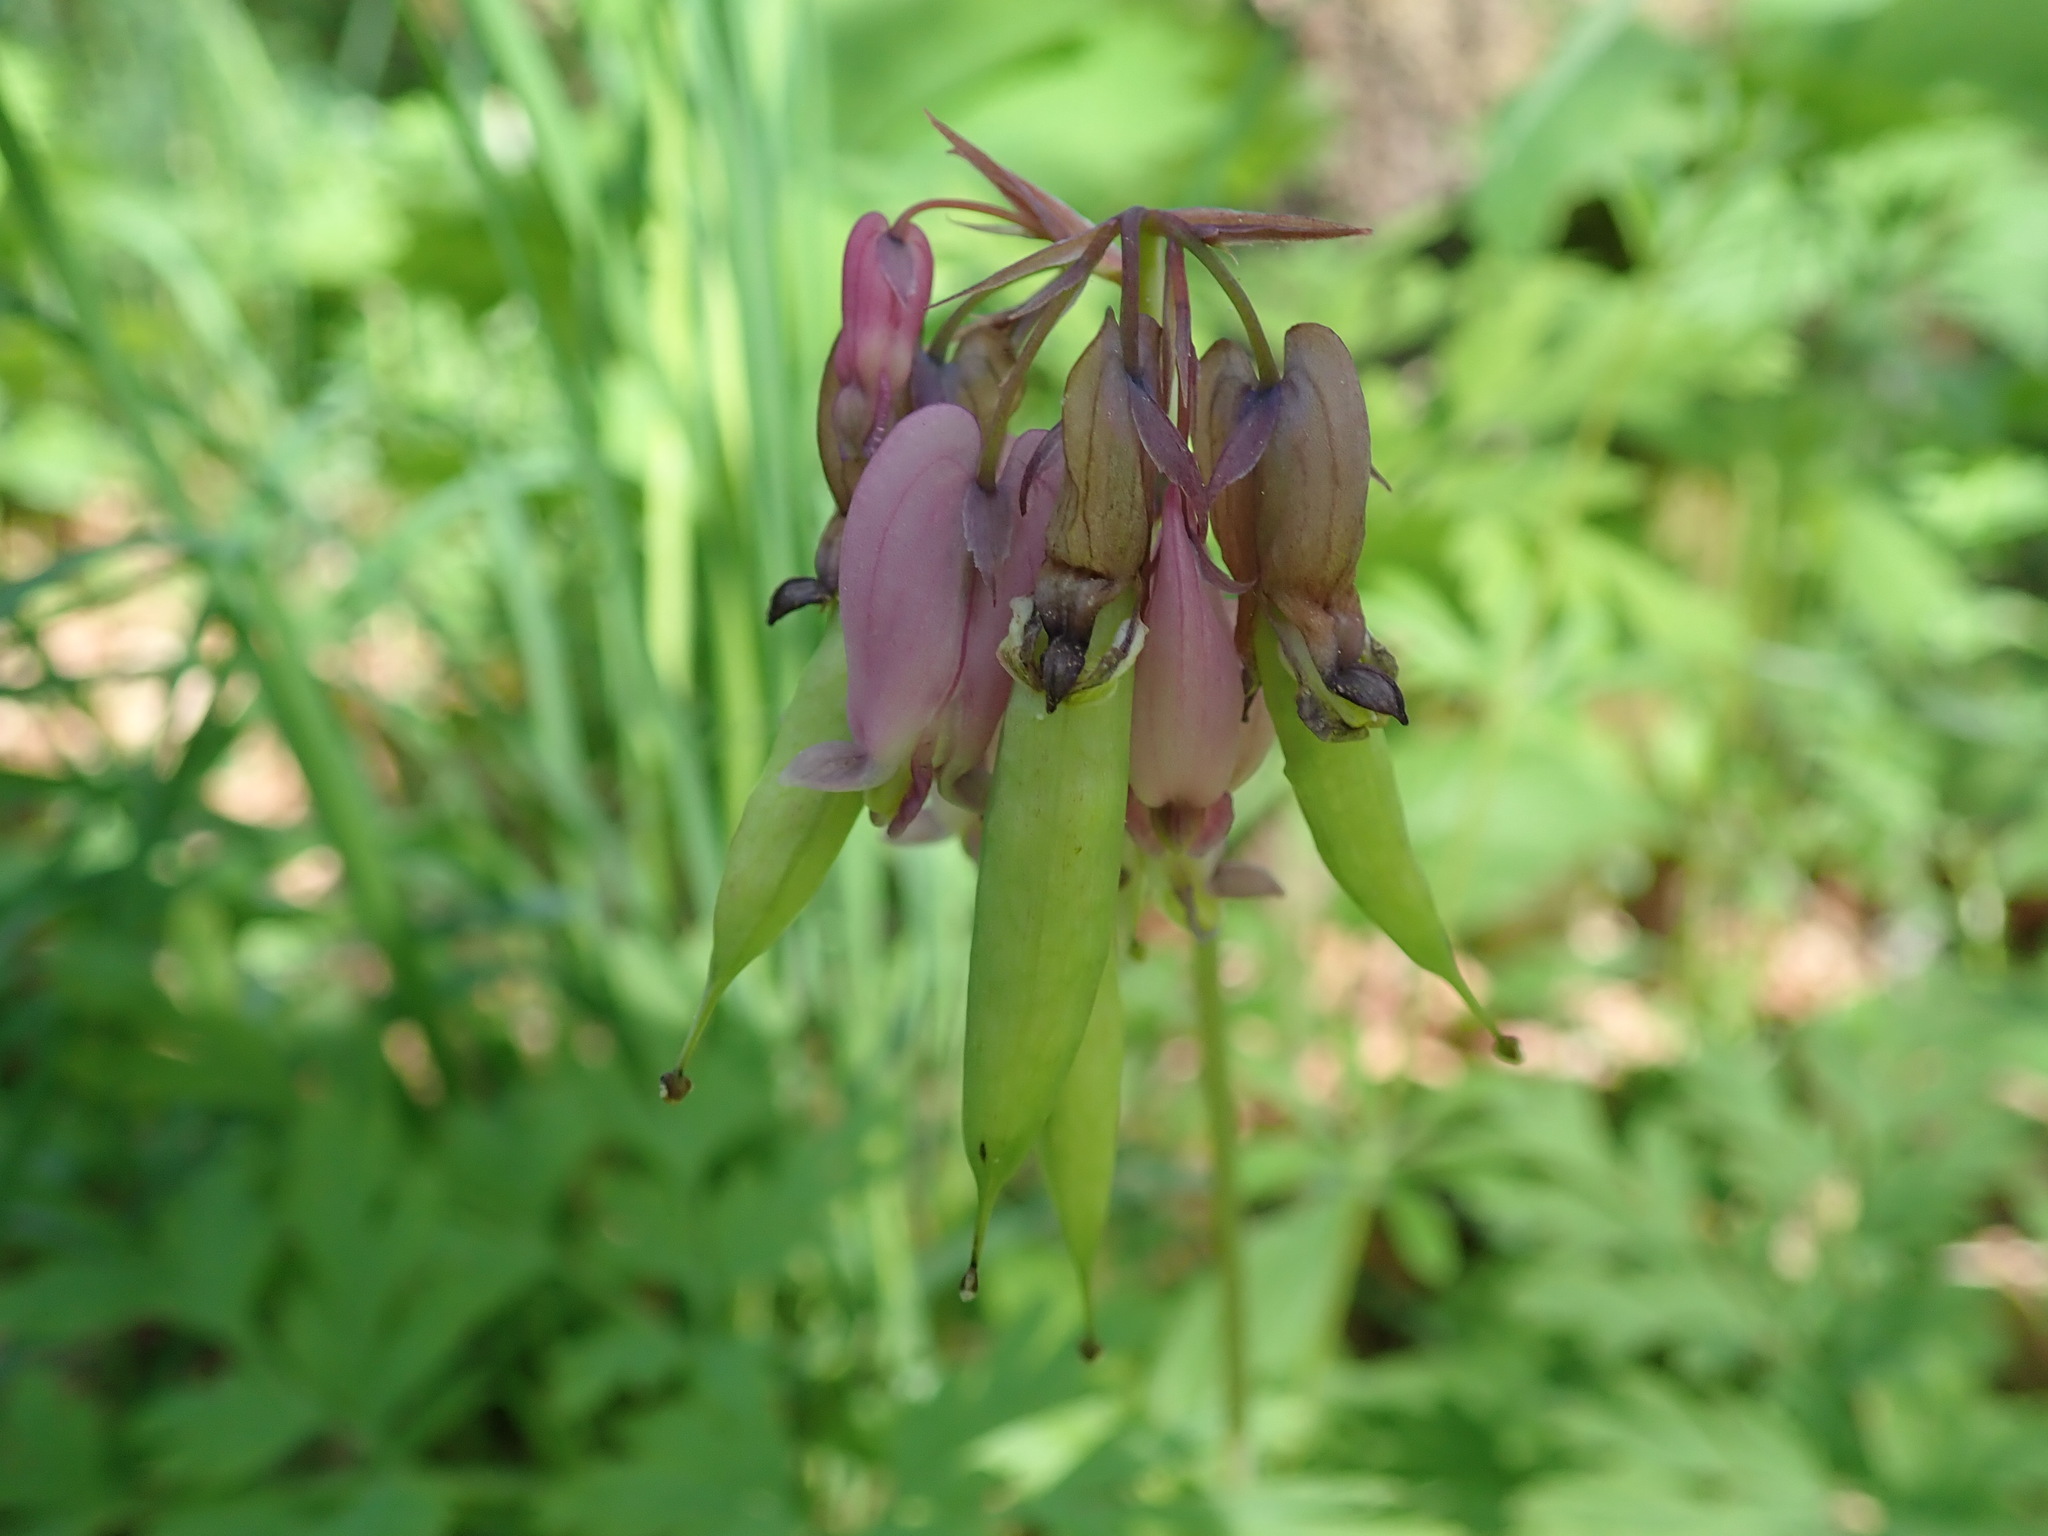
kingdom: Plantae
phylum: Tracheophyta
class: Magnoliopsida
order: Ranunculales
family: Papaveraceae
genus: Dicentra
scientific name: Dicentra formosa
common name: Bleeding-heart
